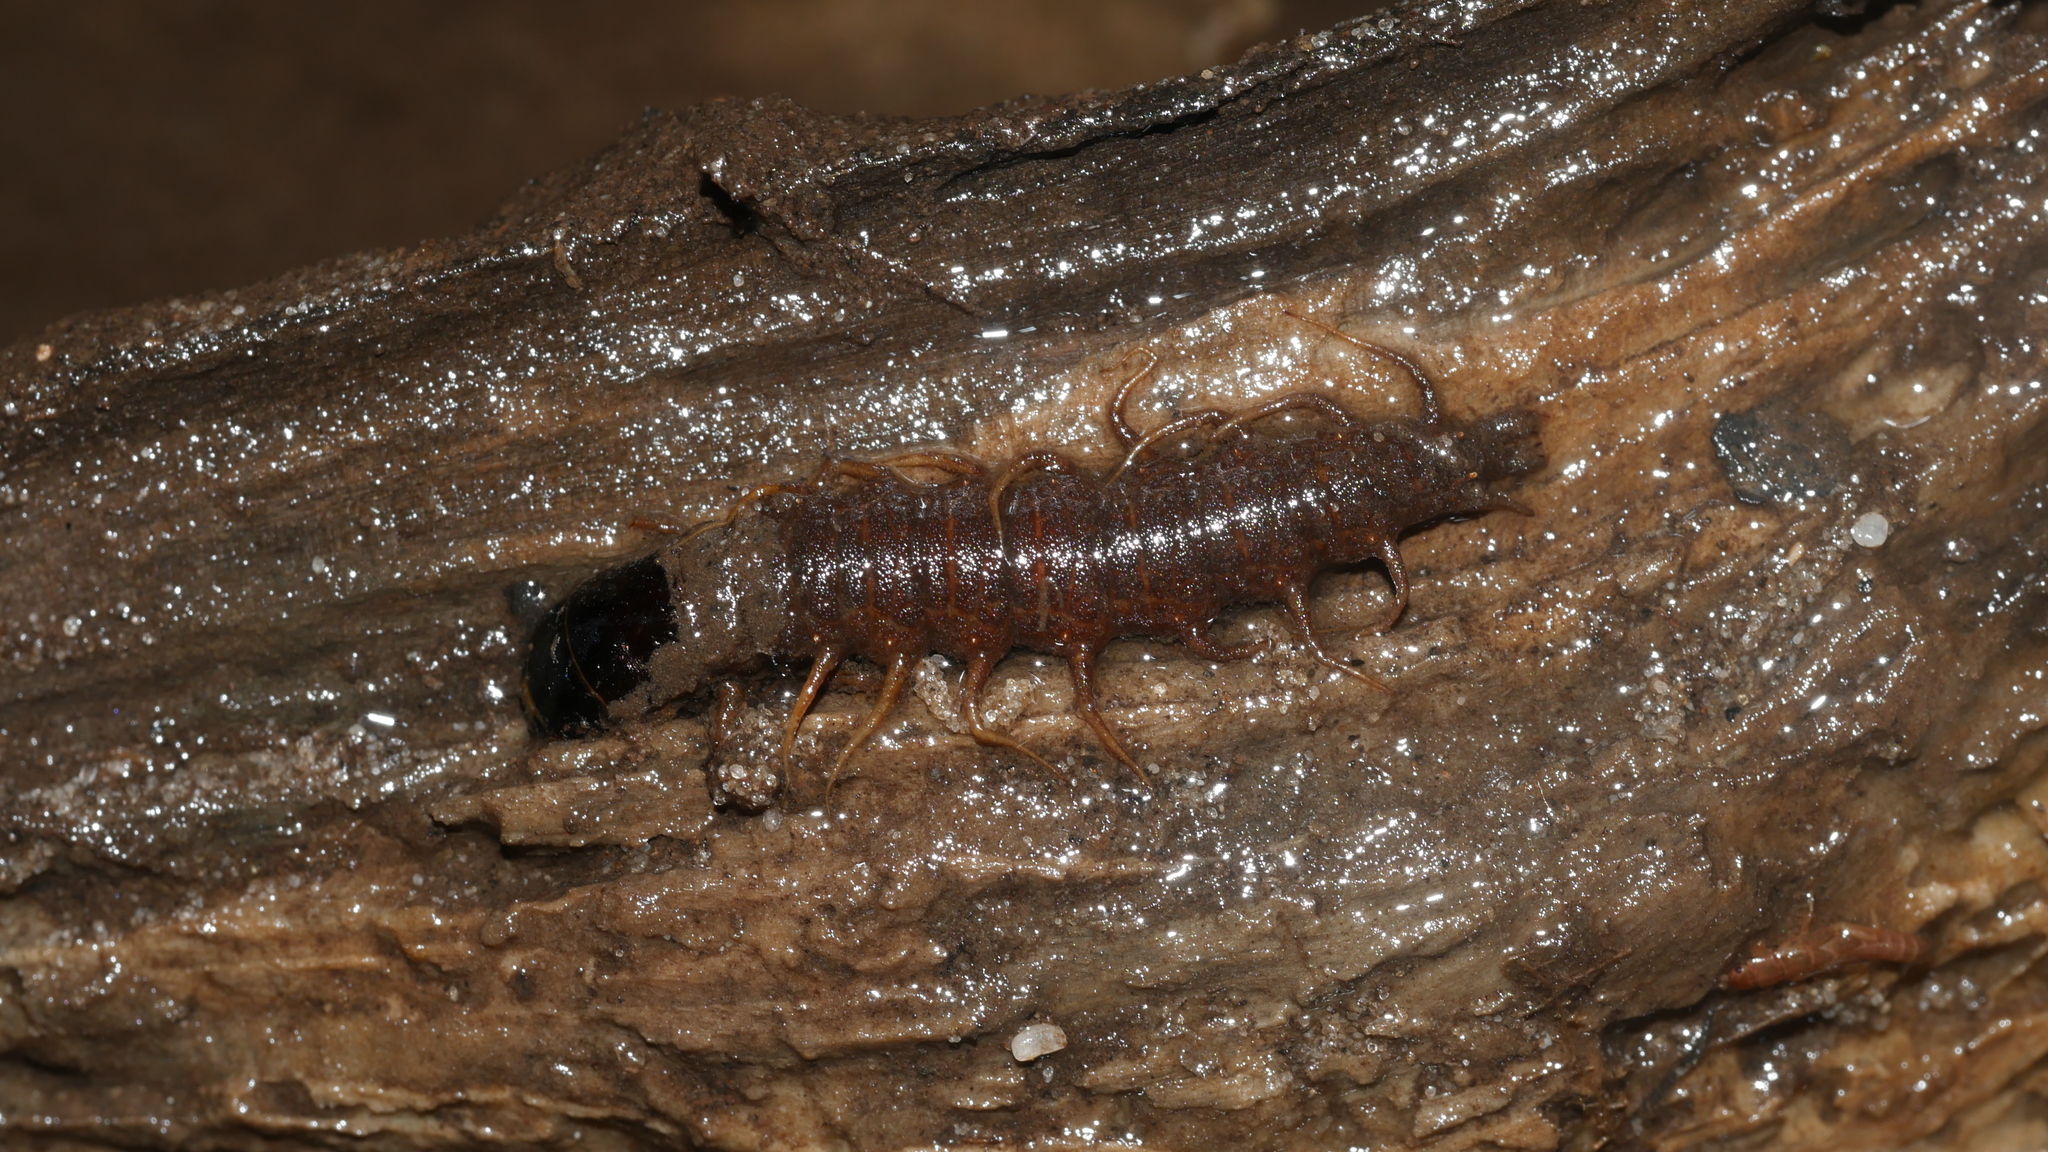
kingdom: Animalia
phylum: Arthropoda
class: Insecta
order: Megaloptera
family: Corydalidae
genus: Nigronia
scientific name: Nigronia serricornis
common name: Serrate dark fishfly
